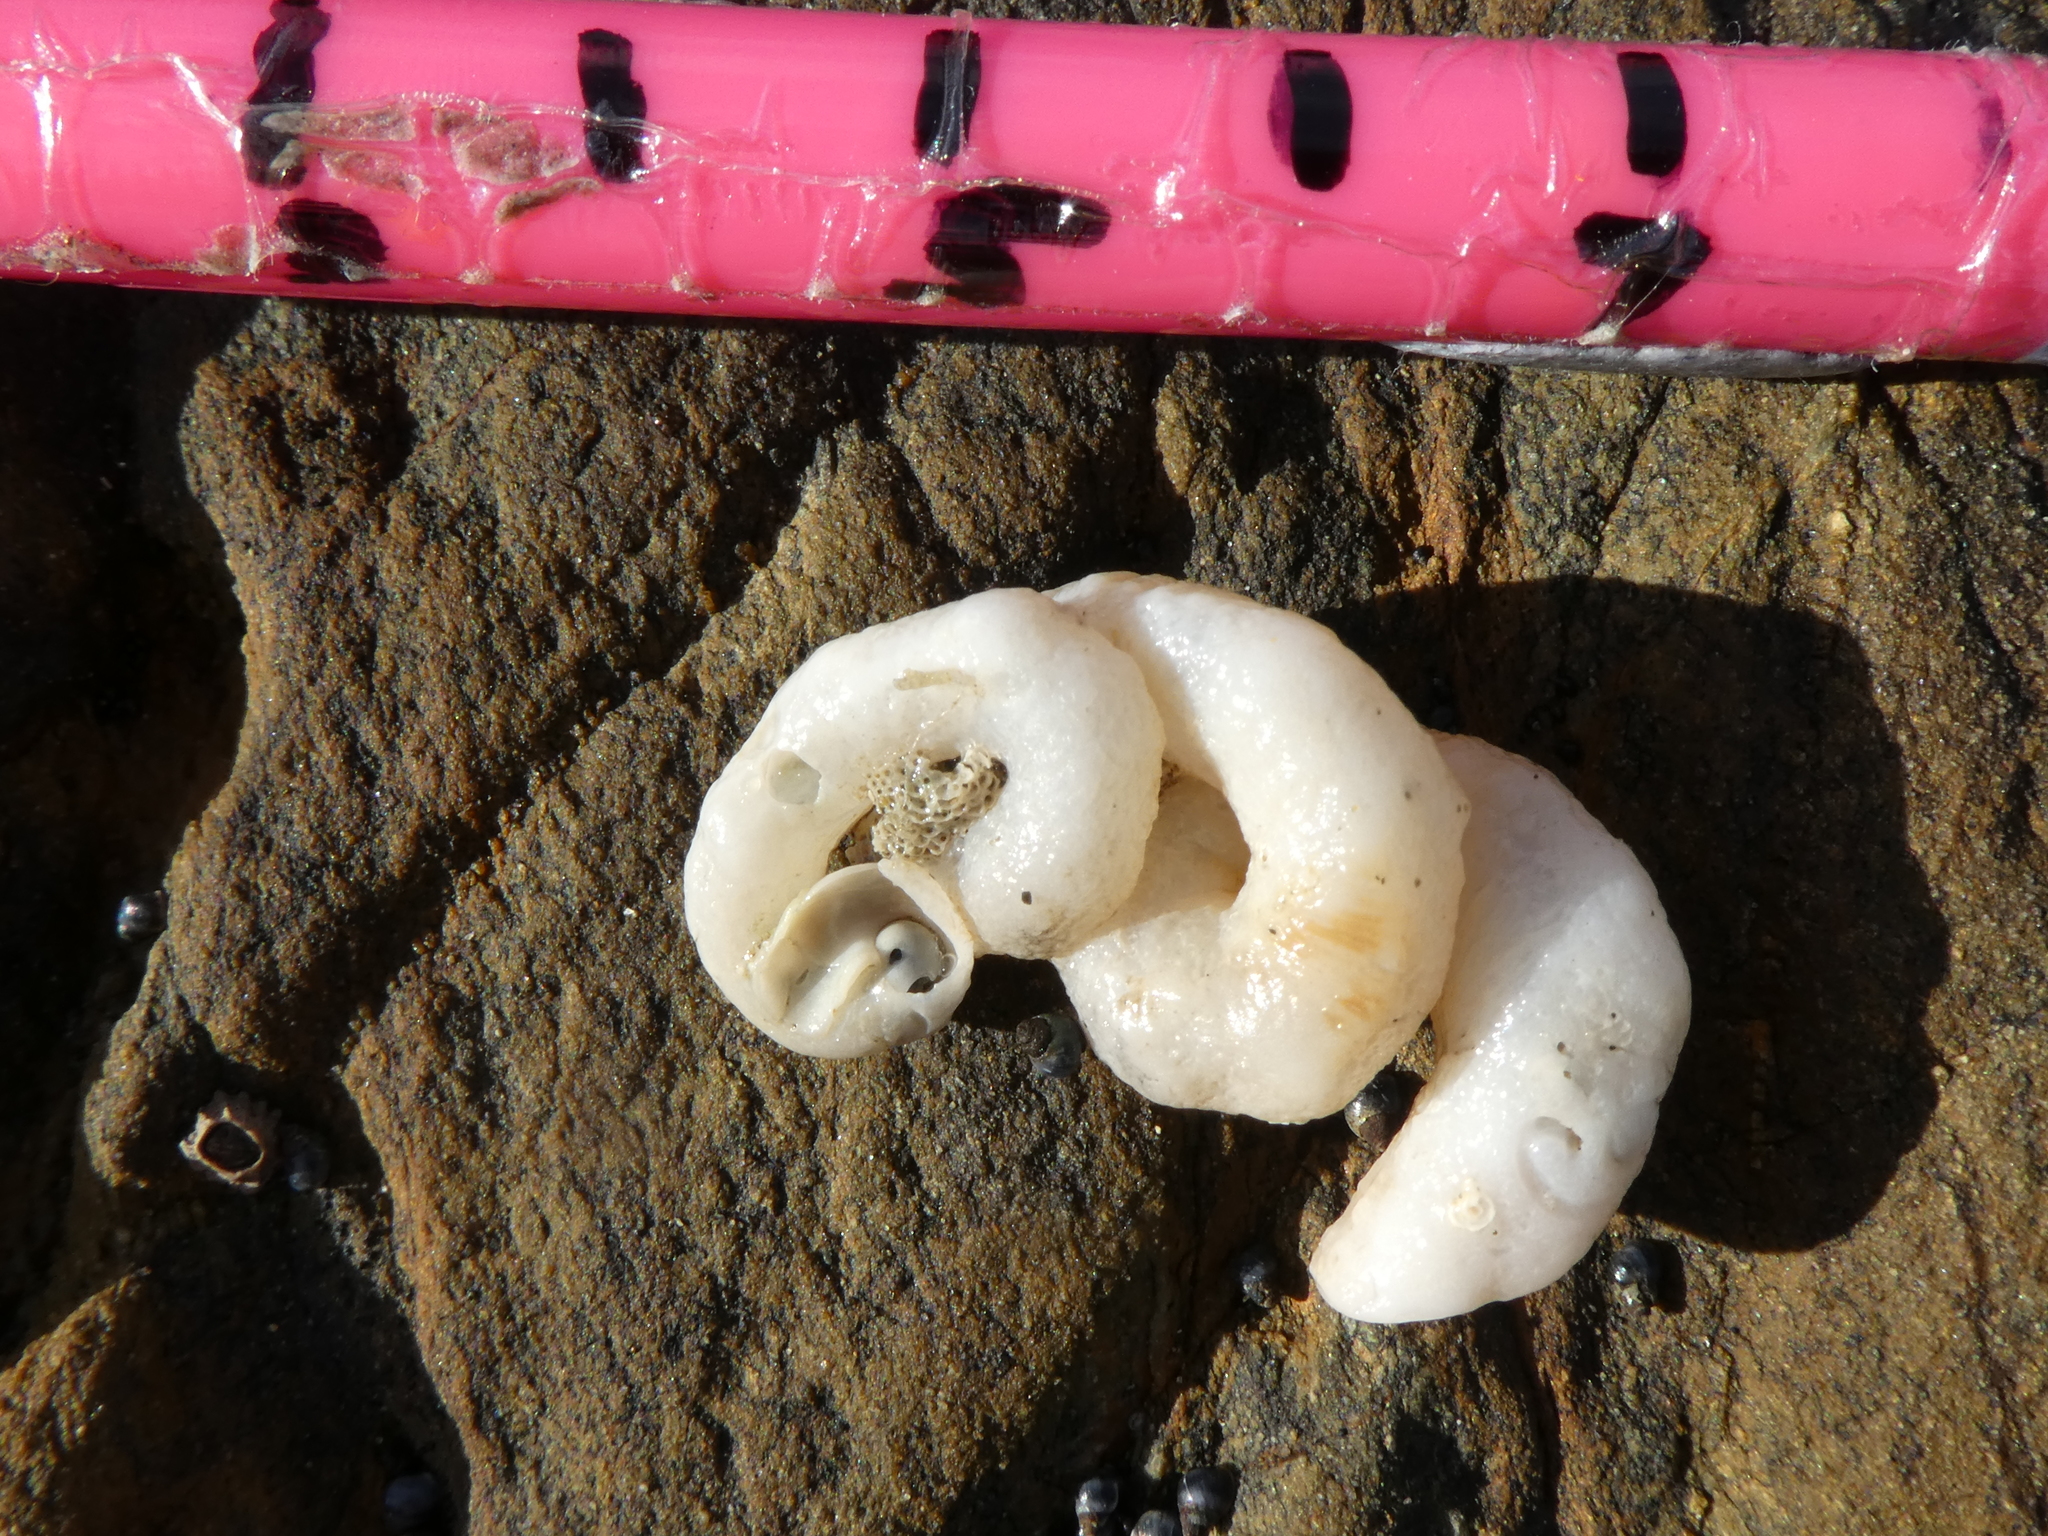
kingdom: Animalia
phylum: Mollusca
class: Gastropoda
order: Littorinimorpha
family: Vermetidae
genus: Thylacodes
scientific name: Thylacodes zelandicus
